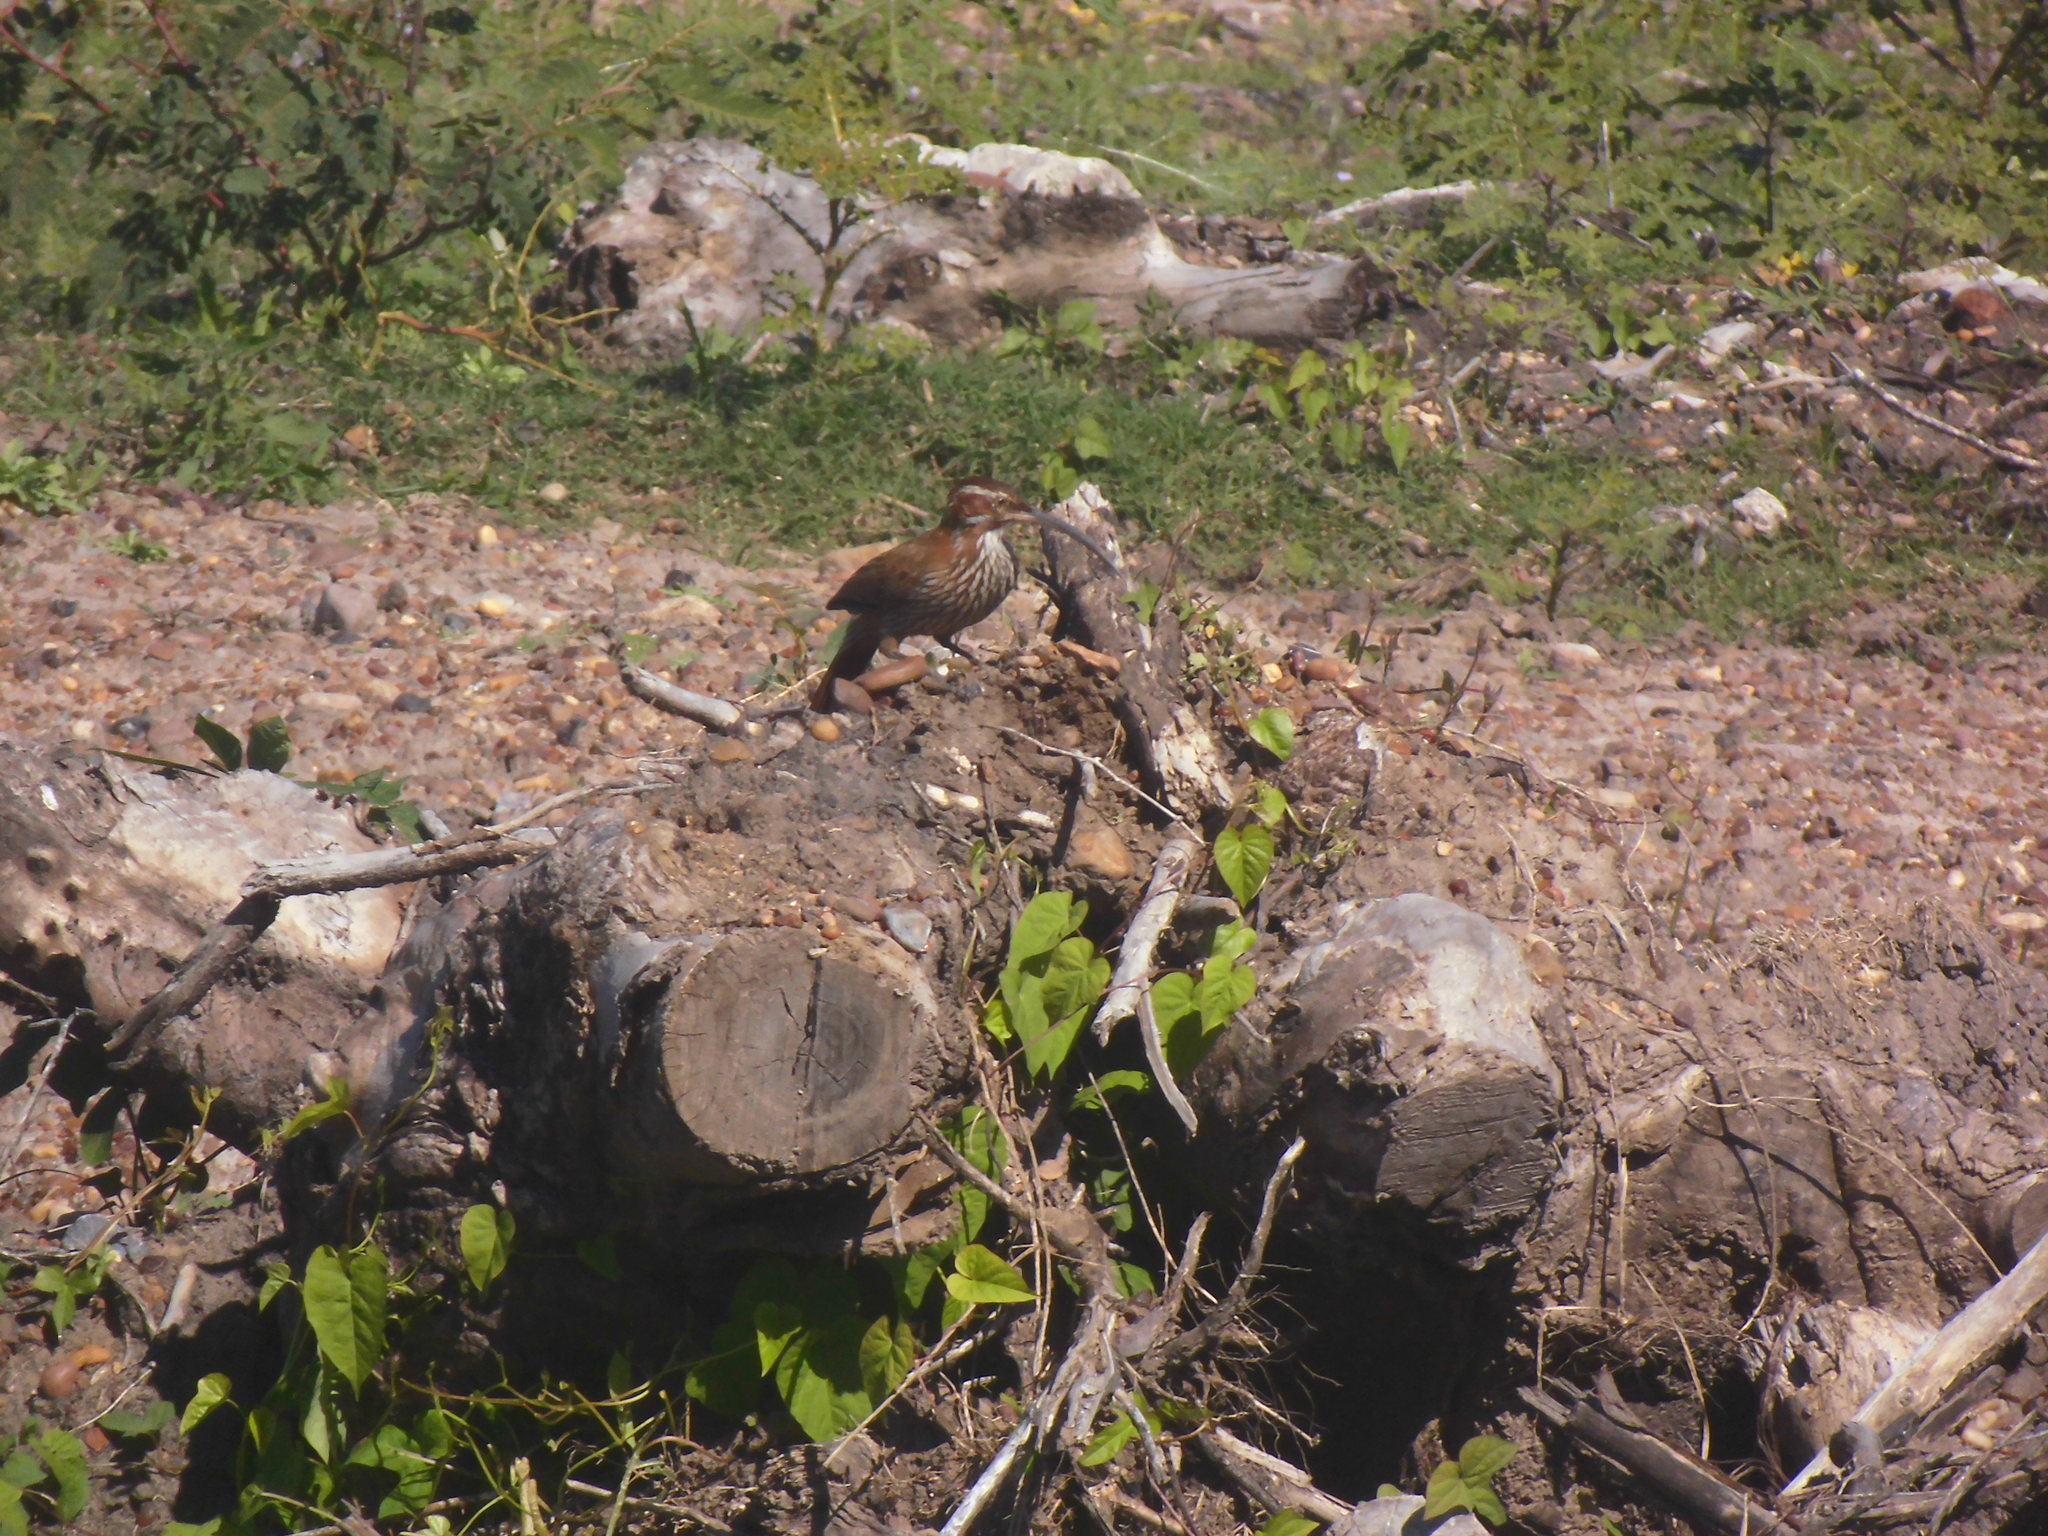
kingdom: Animalia
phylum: Chordata
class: Aves
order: Passeriformes
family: Furnariidae
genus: Drymornis
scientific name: Drymornis bridgesii
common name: Scimitar-billed woodcreeper
